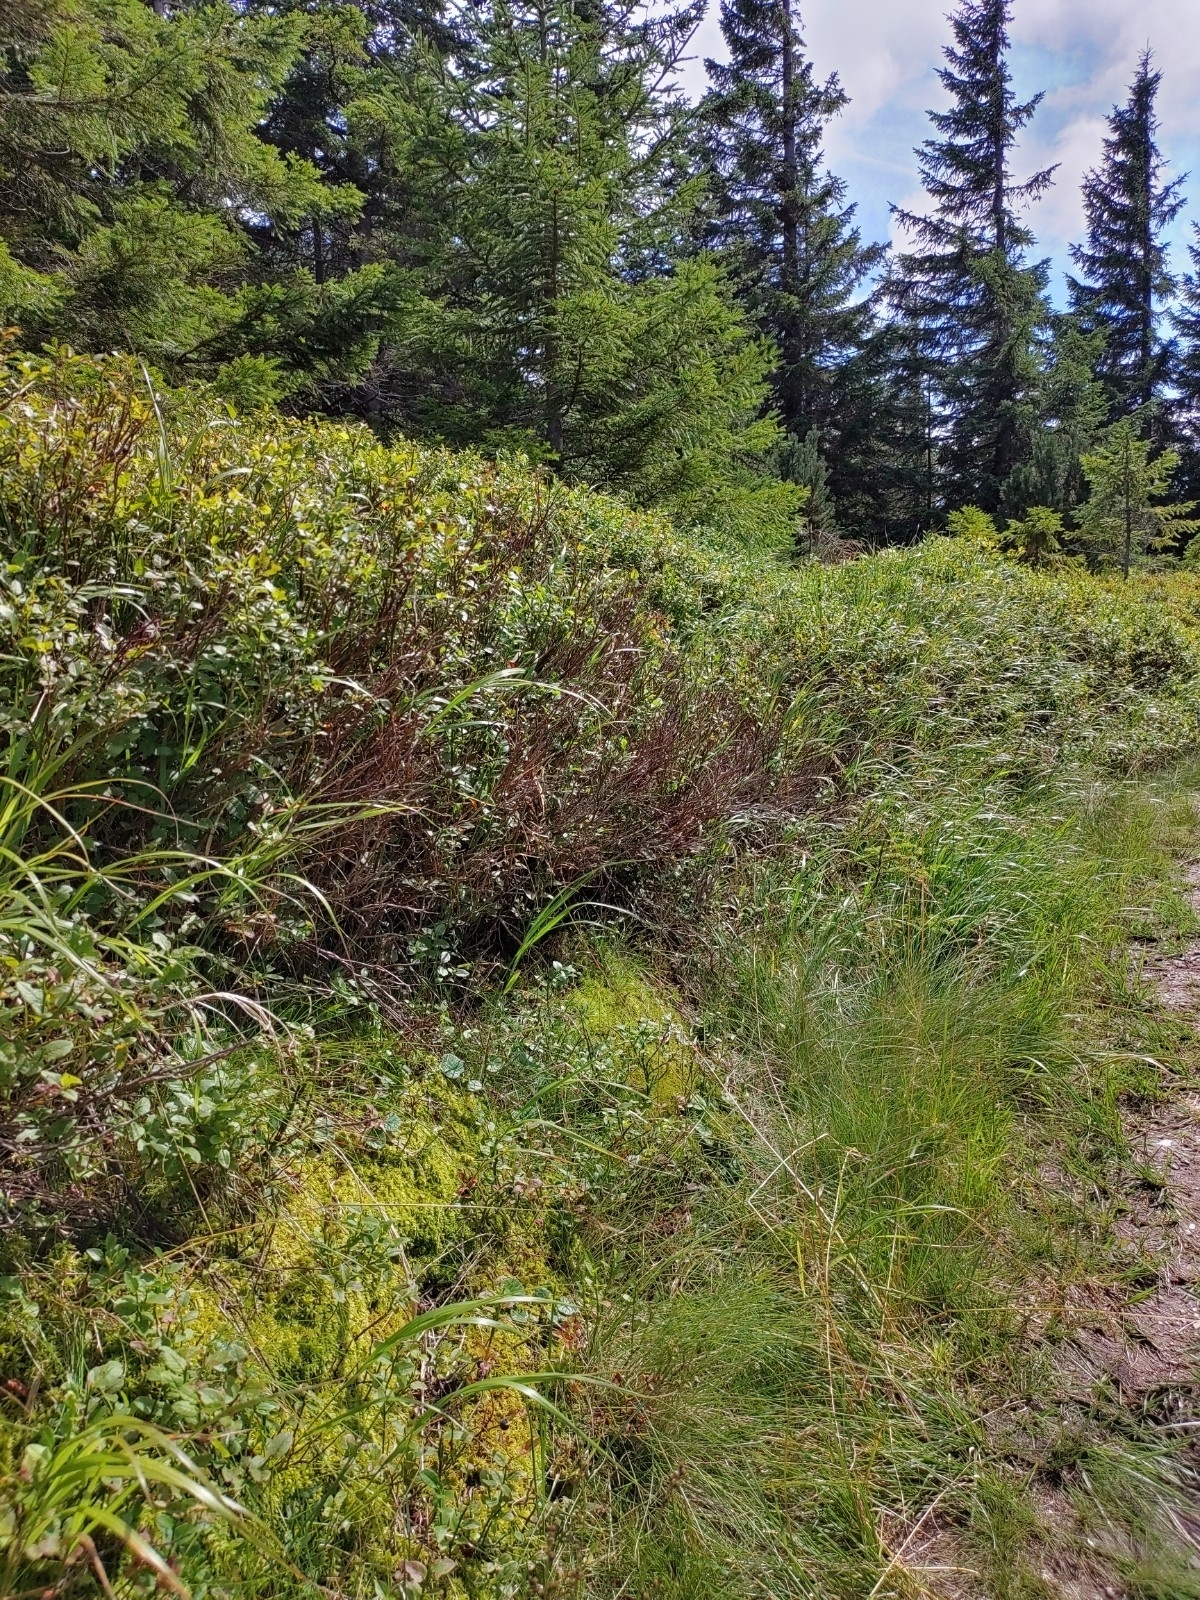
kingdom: Plantae
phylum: Bryophyta
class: Bryopsida
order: Dicranales
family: Dicranaceae
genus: Dicranum
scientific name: Dicranum scoparium
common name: Broom fork-moss
